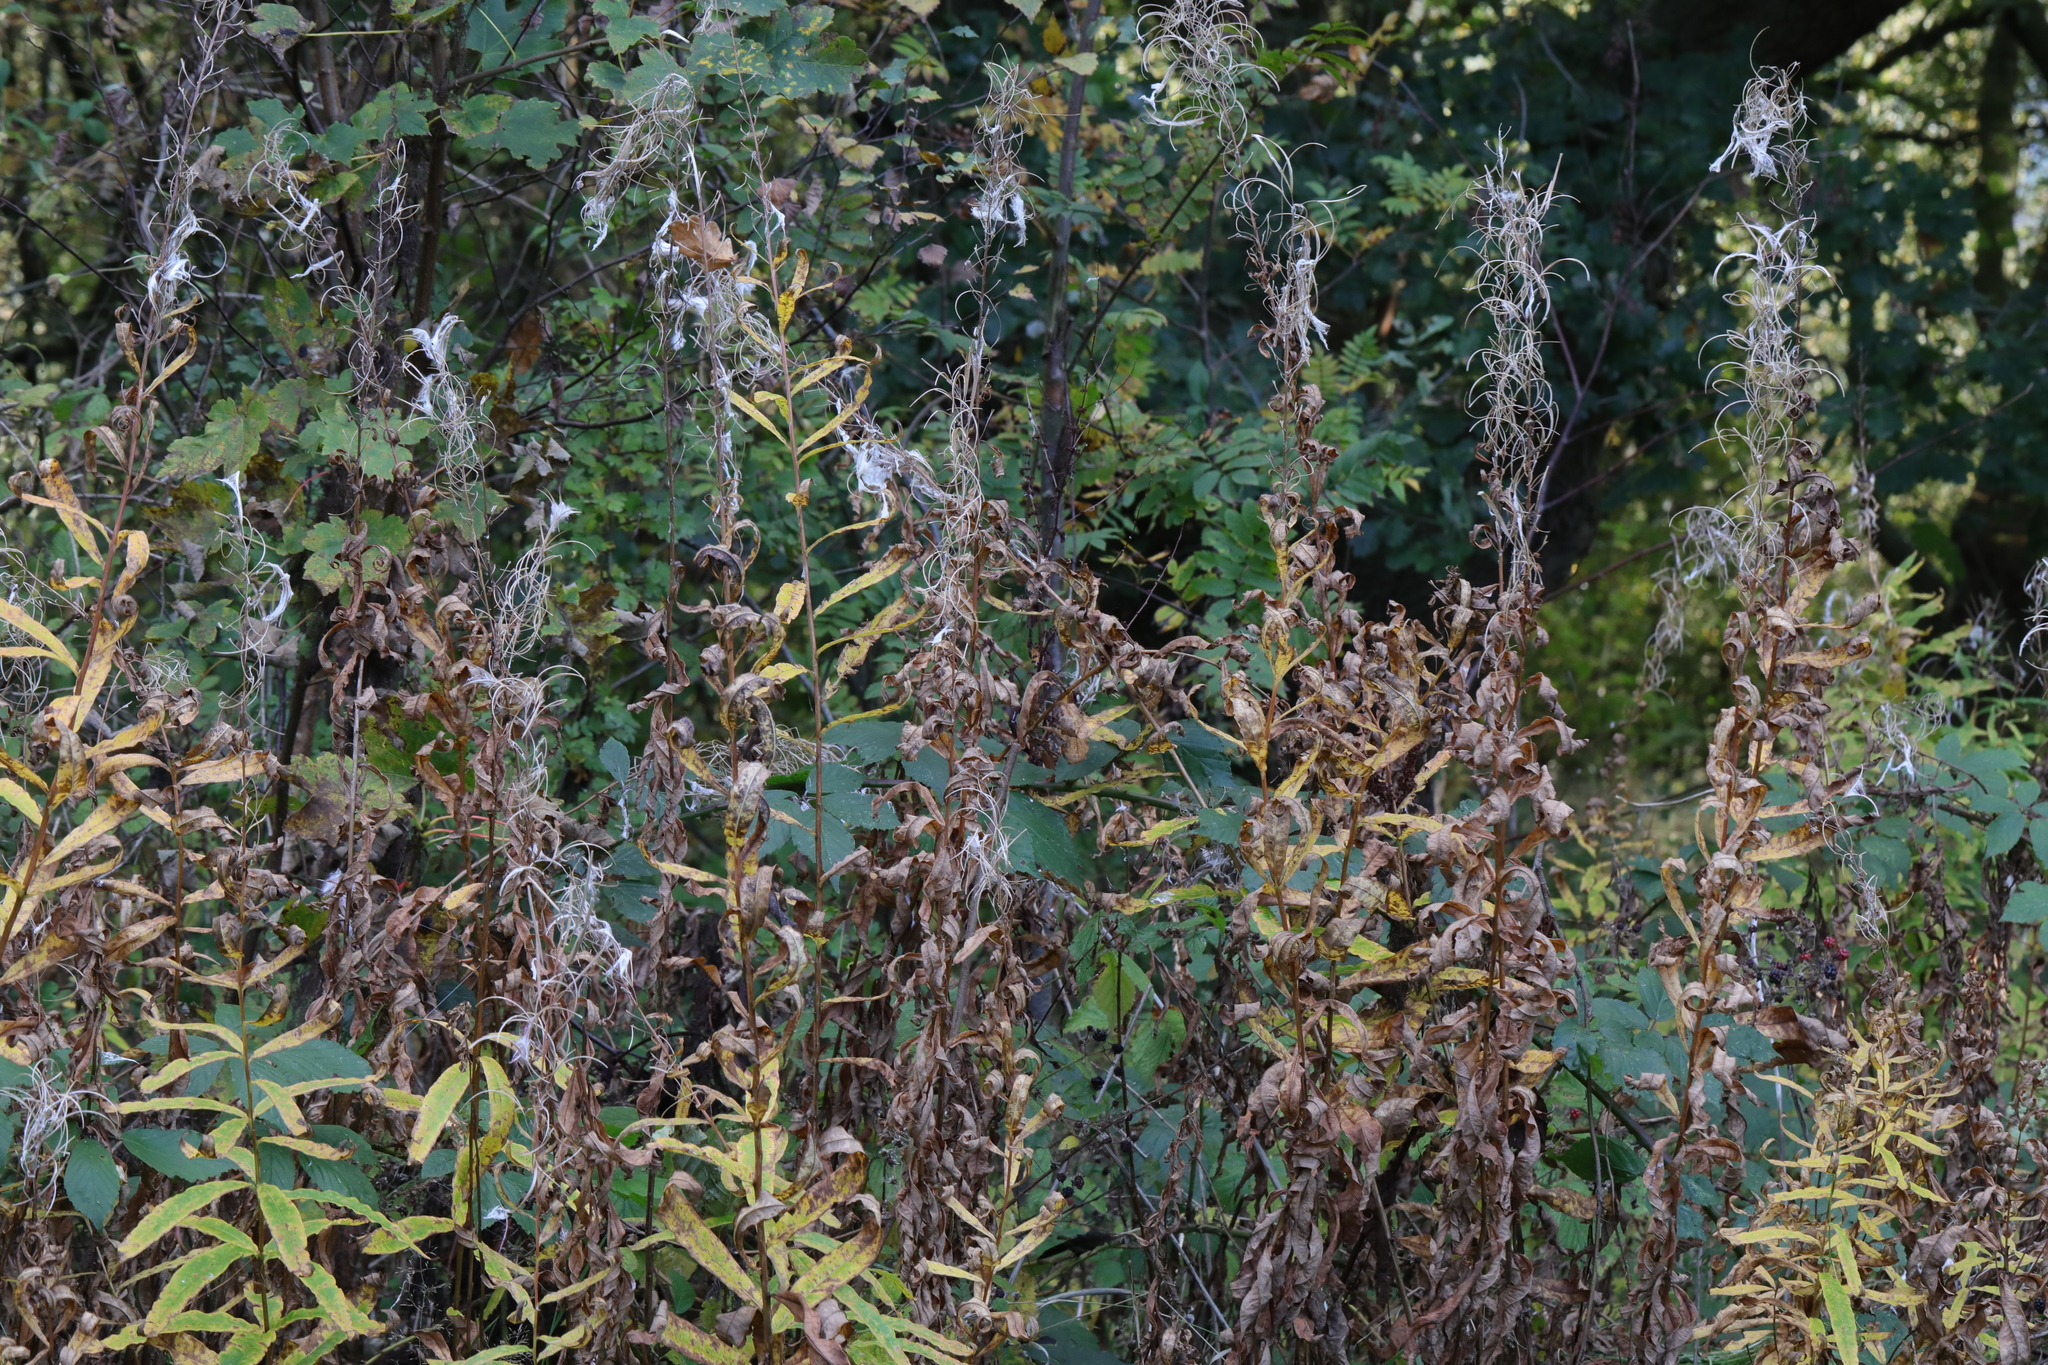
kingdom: Plantae
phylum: Tracheophyta
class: Magnoliopsida
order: Myrtales
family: Onagraceae
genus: Chamaenerion
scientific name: Chamaenerion angustifolium
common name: Fireweed
